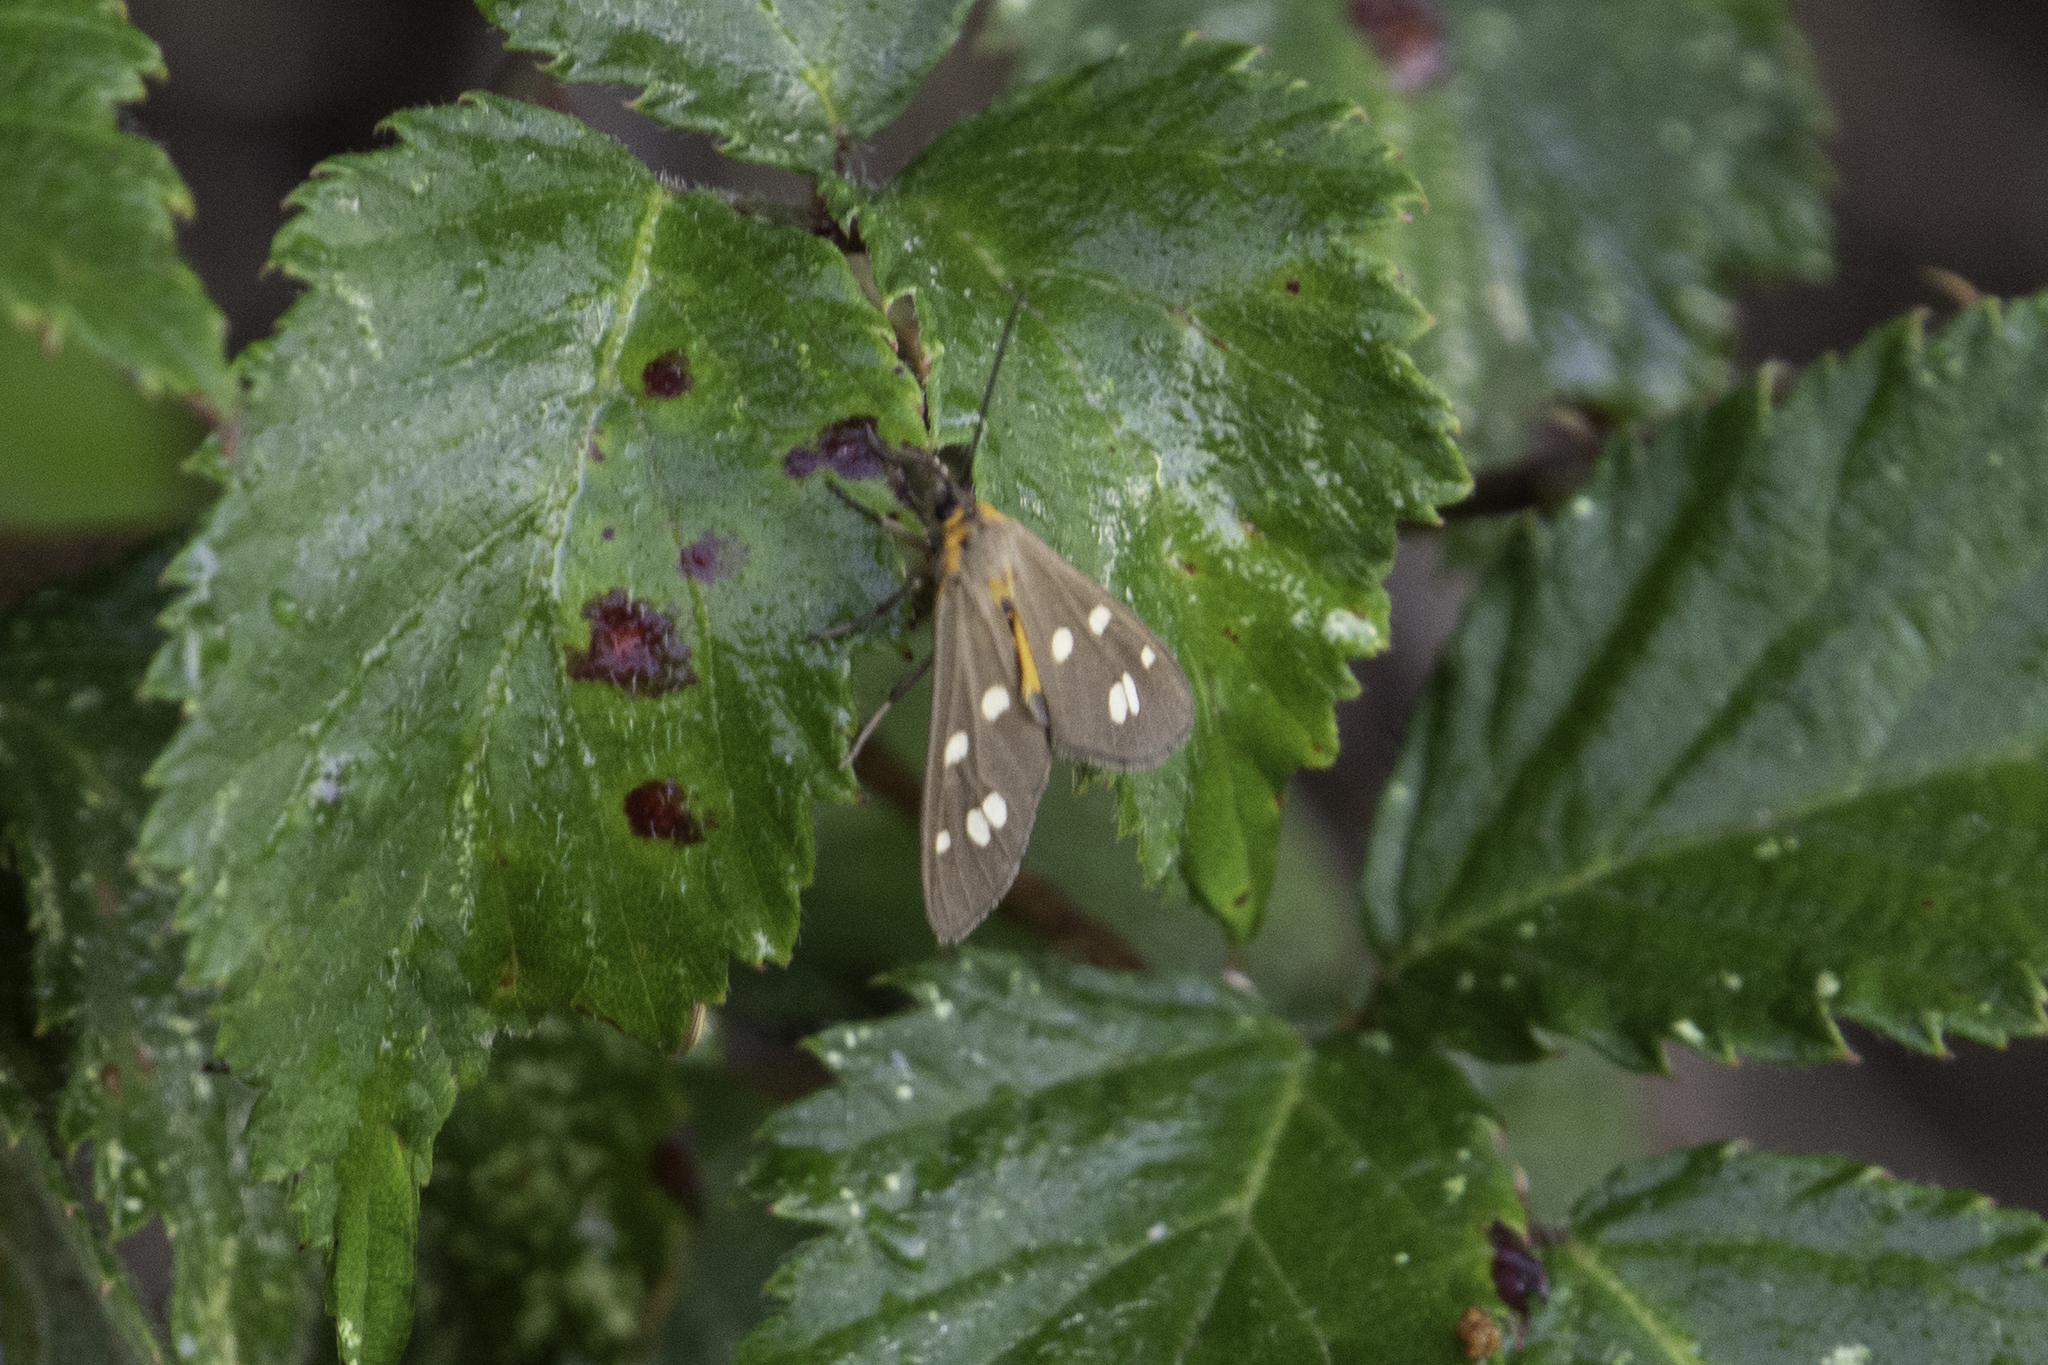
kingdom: Animalia
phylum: Arthropoda
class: Insecta
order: Lepidoptera
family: Erebidae
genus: Dysauxes
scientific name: Dysauxes punctata
